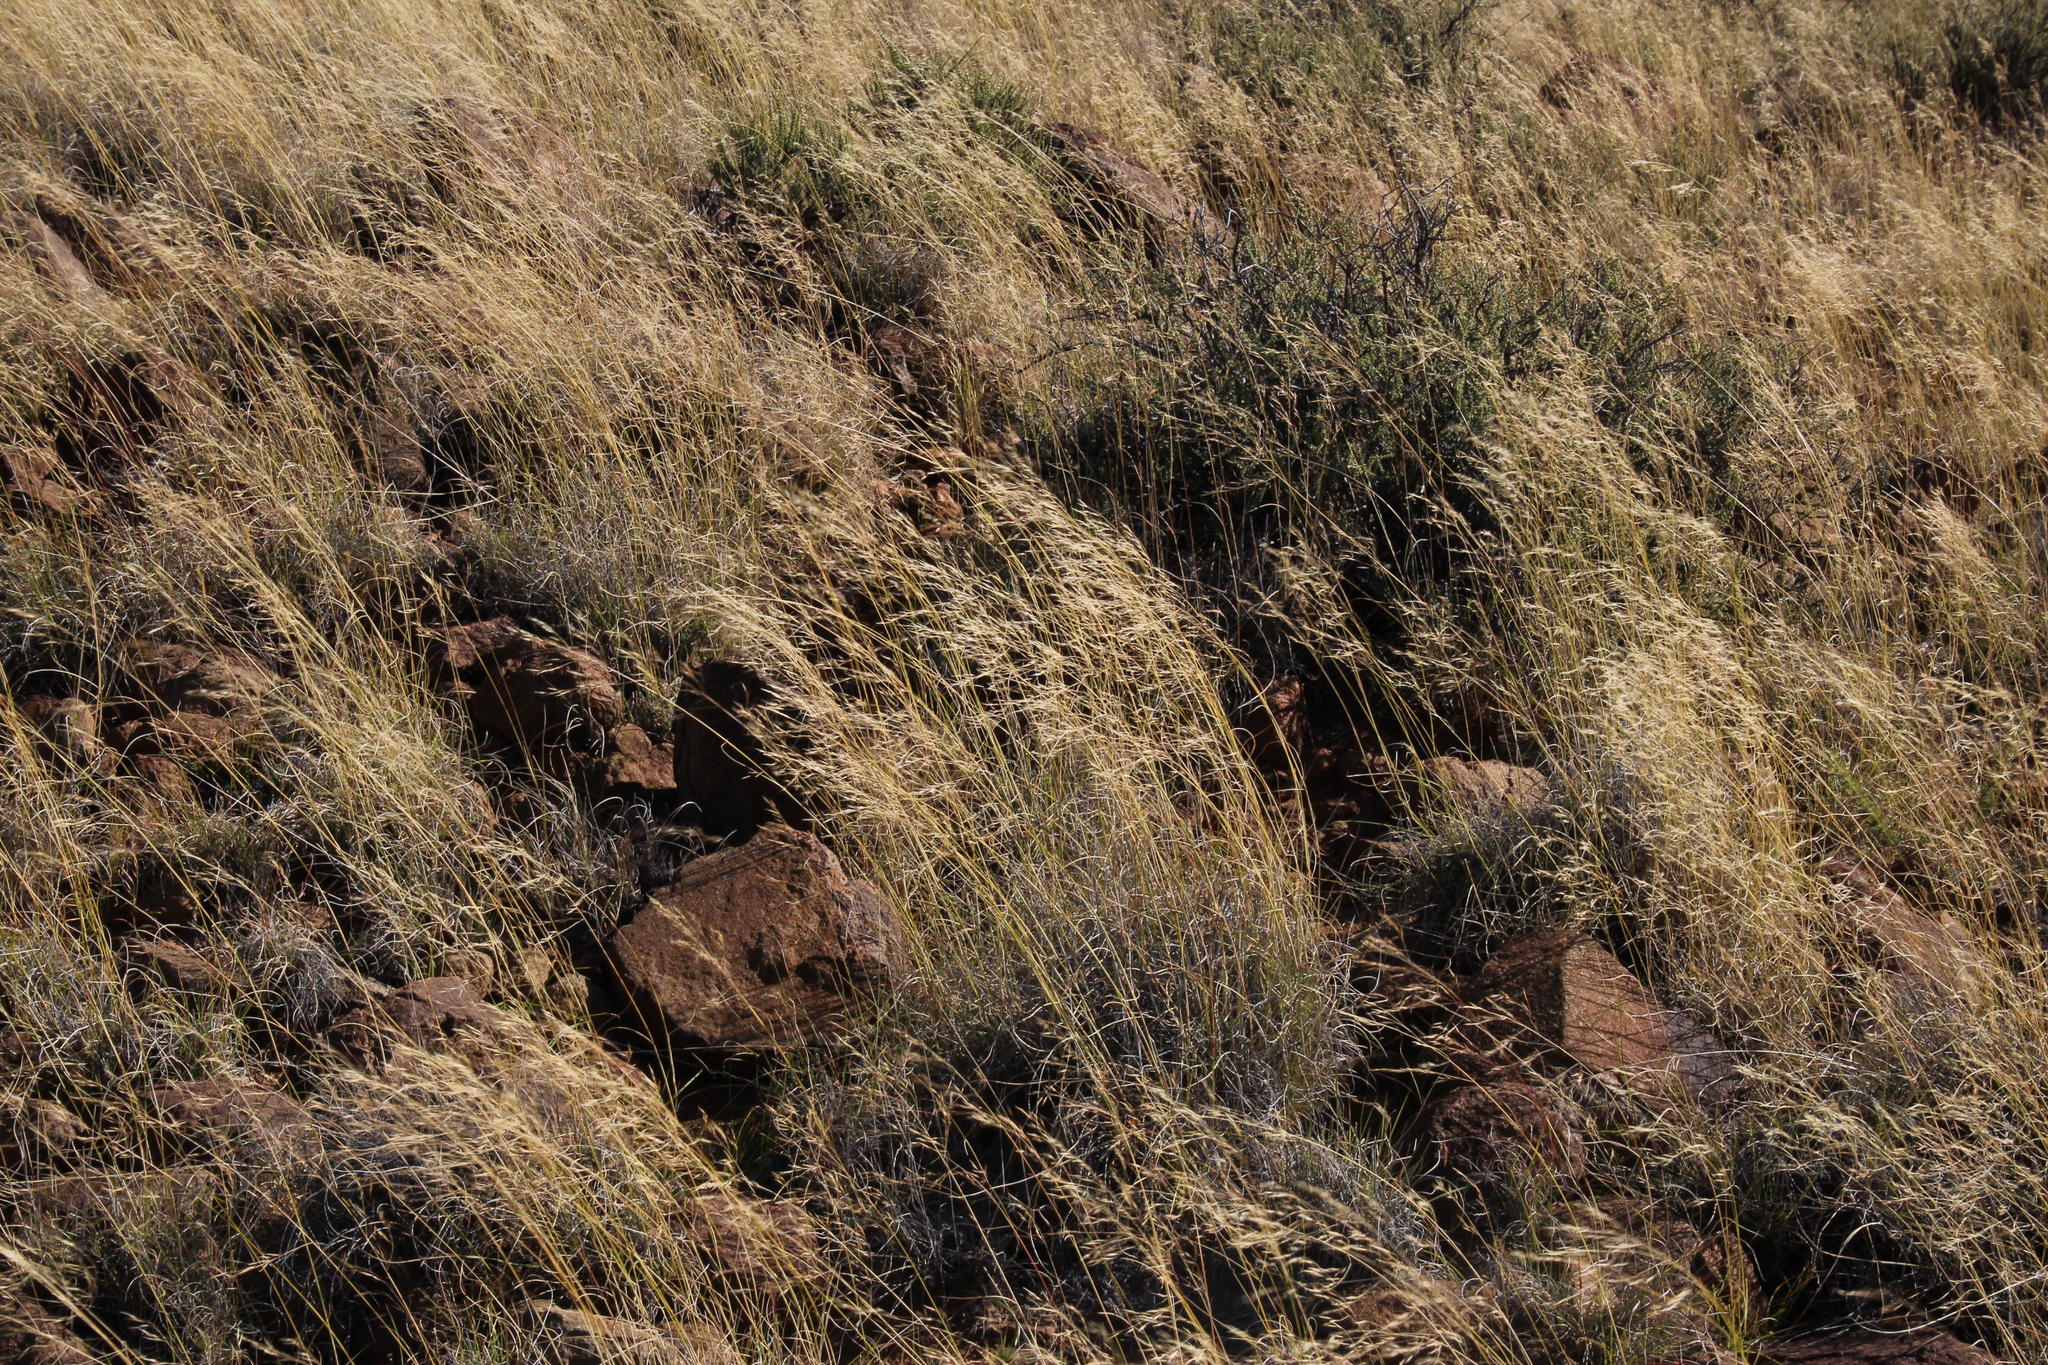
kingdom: Plantae
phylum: Tracheophyta
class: Liliopsida
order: Poales
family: Poaceae
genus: Aristida
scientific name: Aristida diffusa
